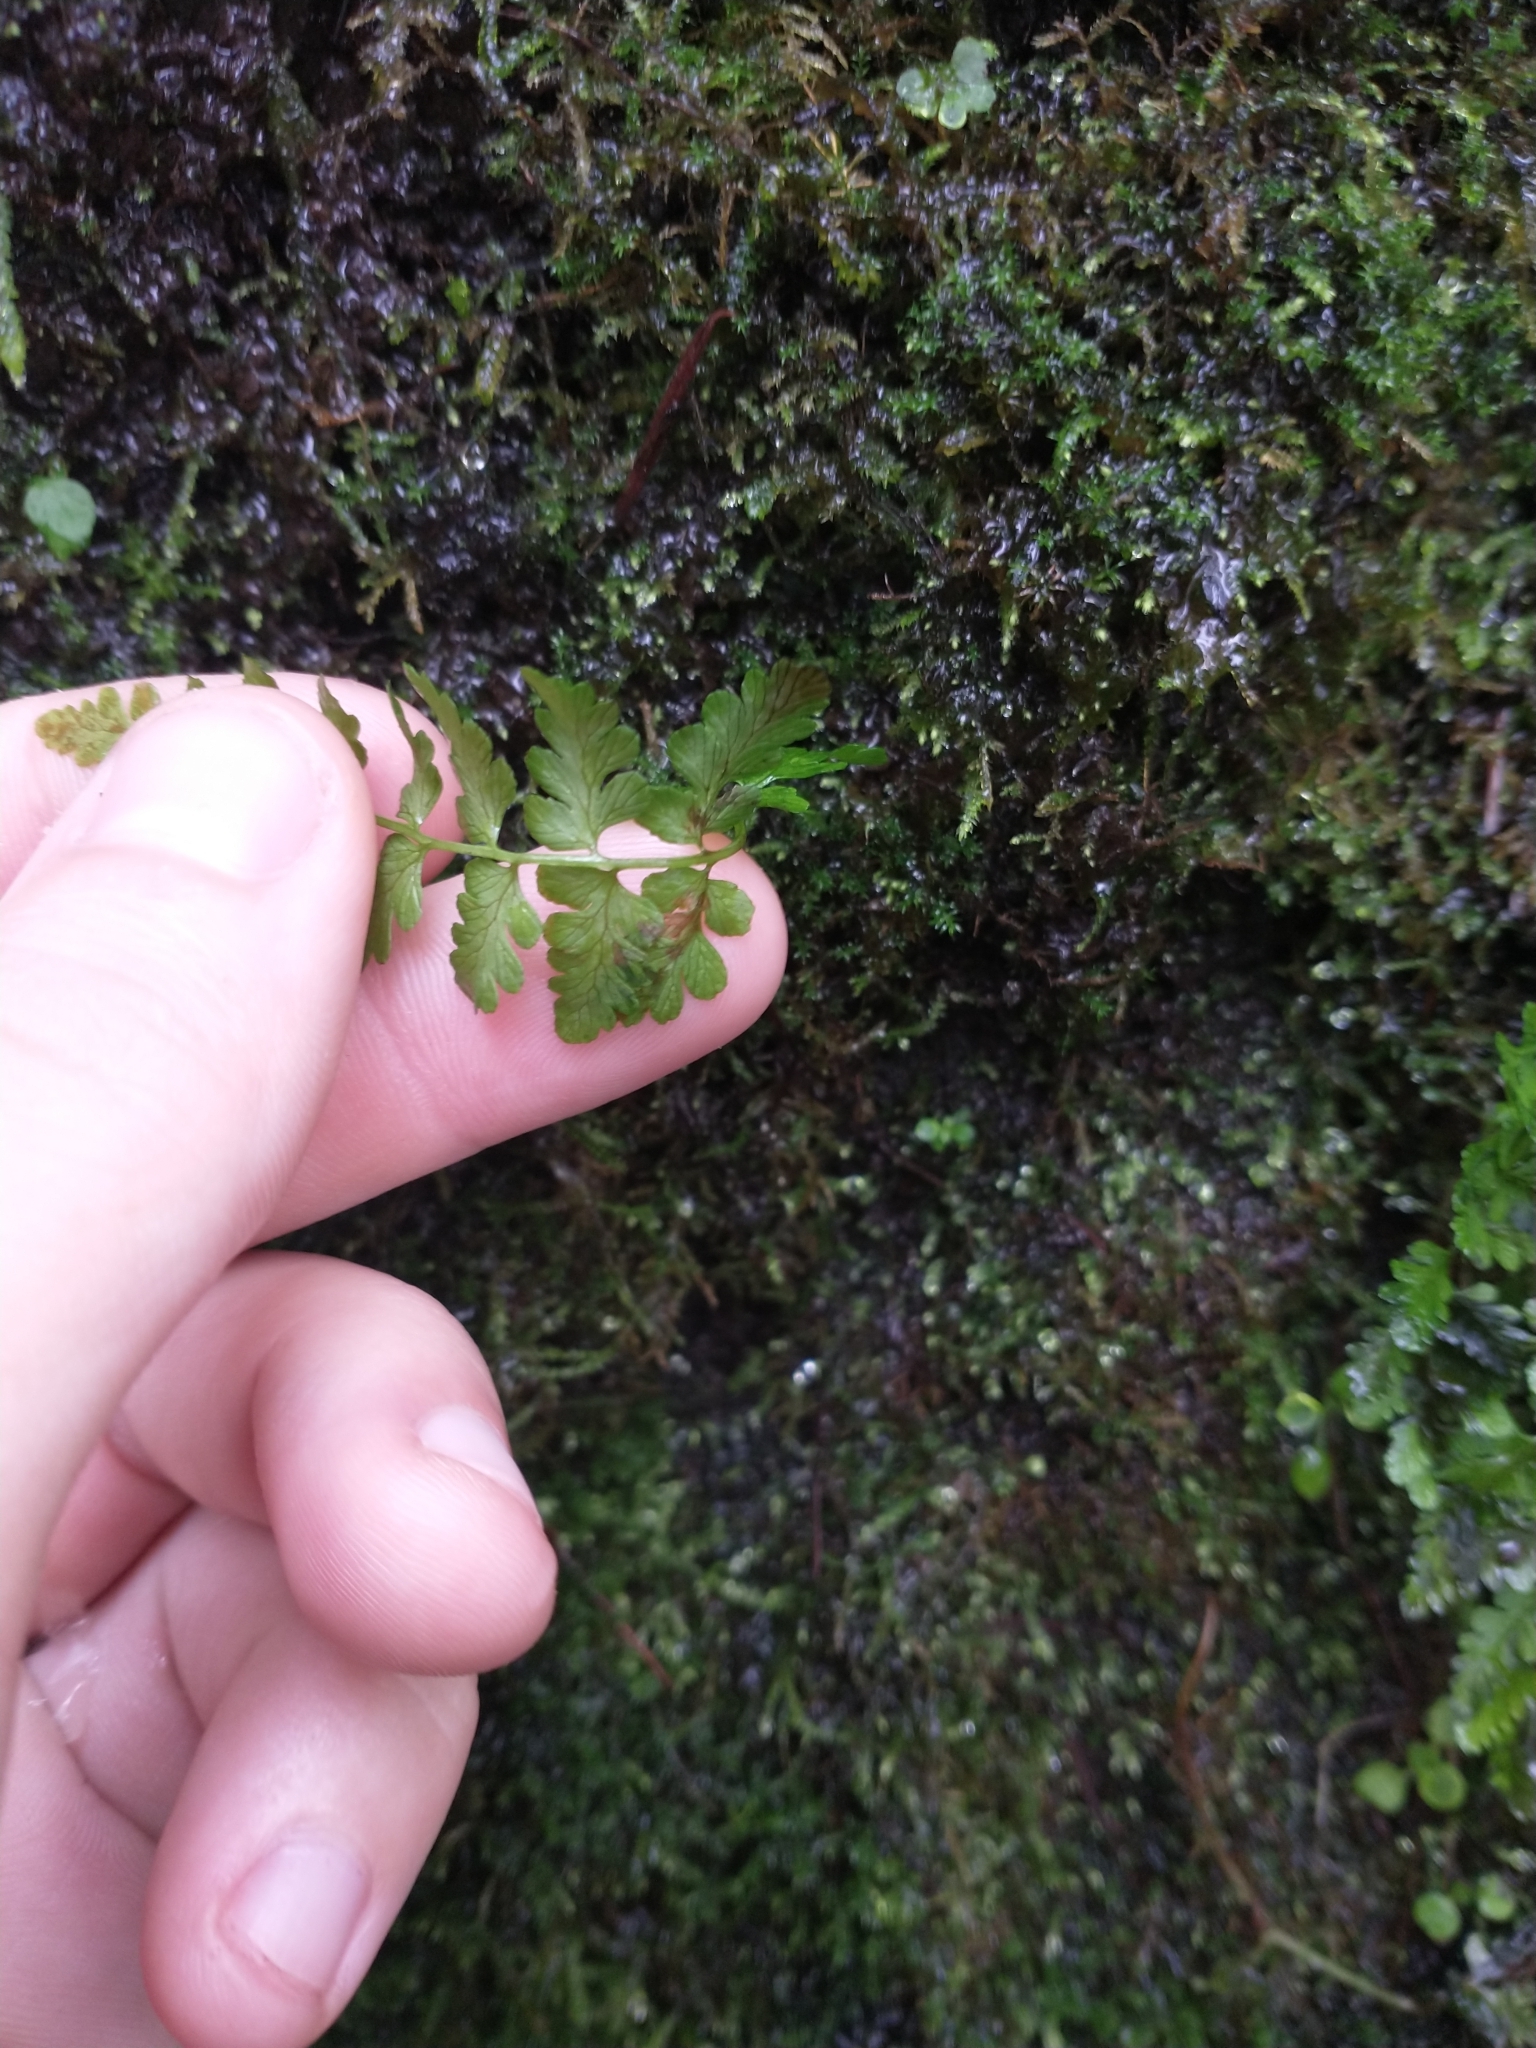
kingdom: Plantae
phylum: Tracheophyta
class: Polypodiopsida
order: Polypodiales
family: Cystopteridaceae
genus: Cystopteris
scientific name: Cystopteris fragilis
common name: Brittle bladder fern
